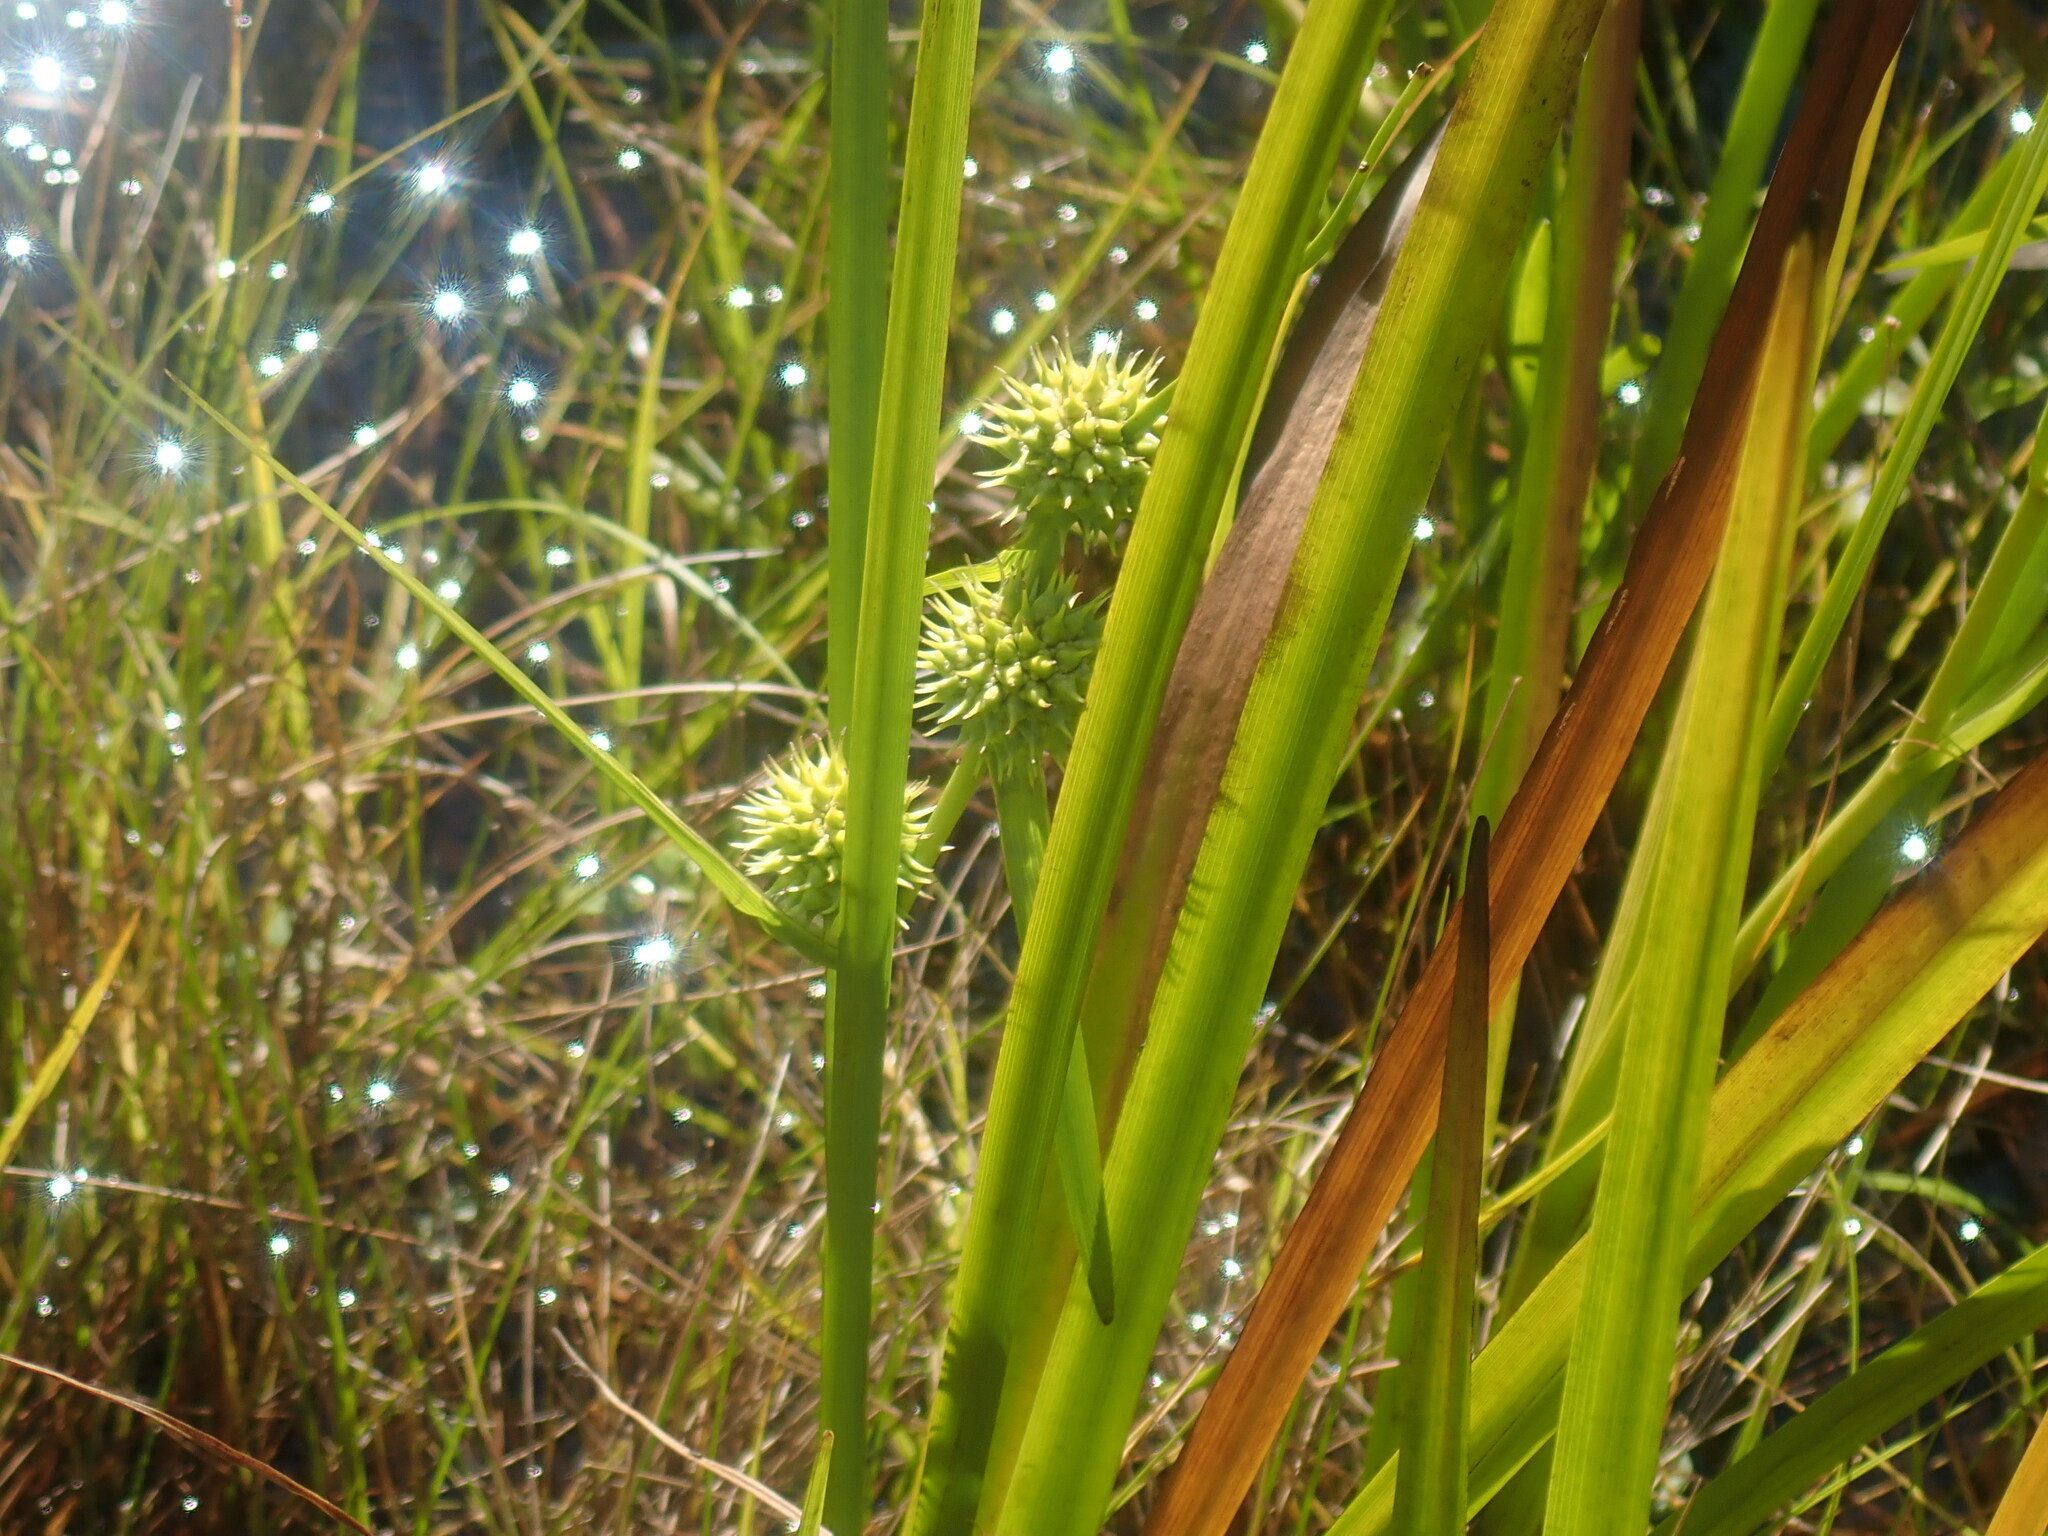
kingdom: Plantae
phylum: Tracheophyta
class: Liliopsida
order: Poales
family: Typhaceae
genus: Sparganium
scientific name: Sparganium
